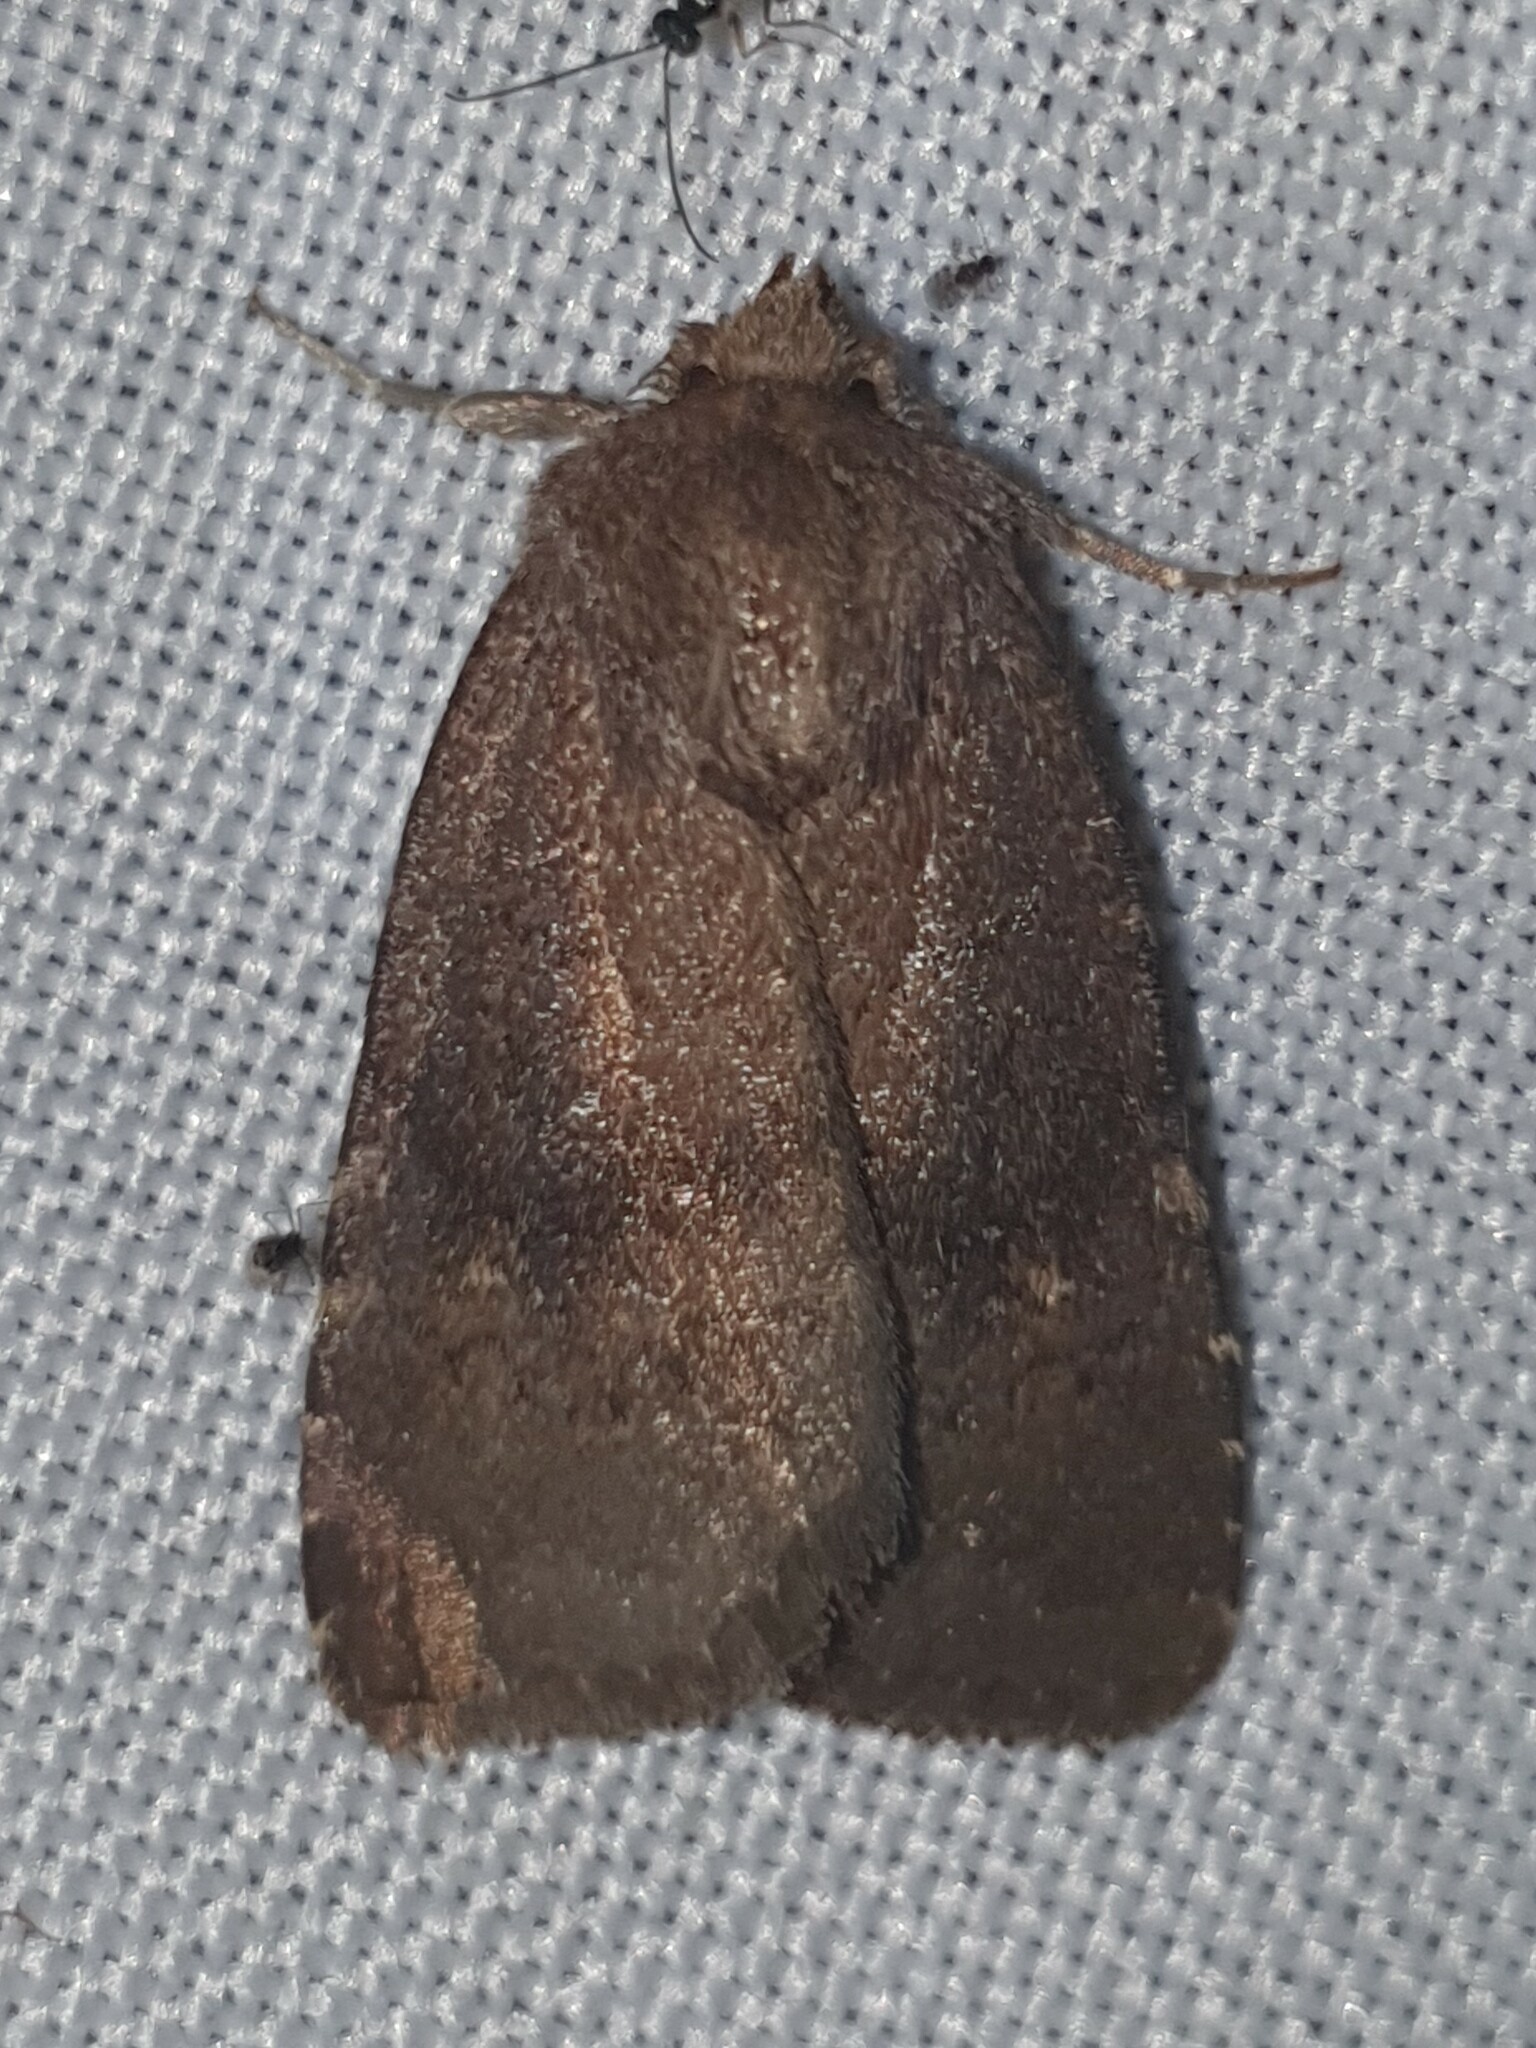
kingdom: Animalia
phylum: Arthropoda
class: Insecta
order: Lepidoptera
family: Noctuidae
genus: Charanyca
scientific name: Charanyca ferruginea
